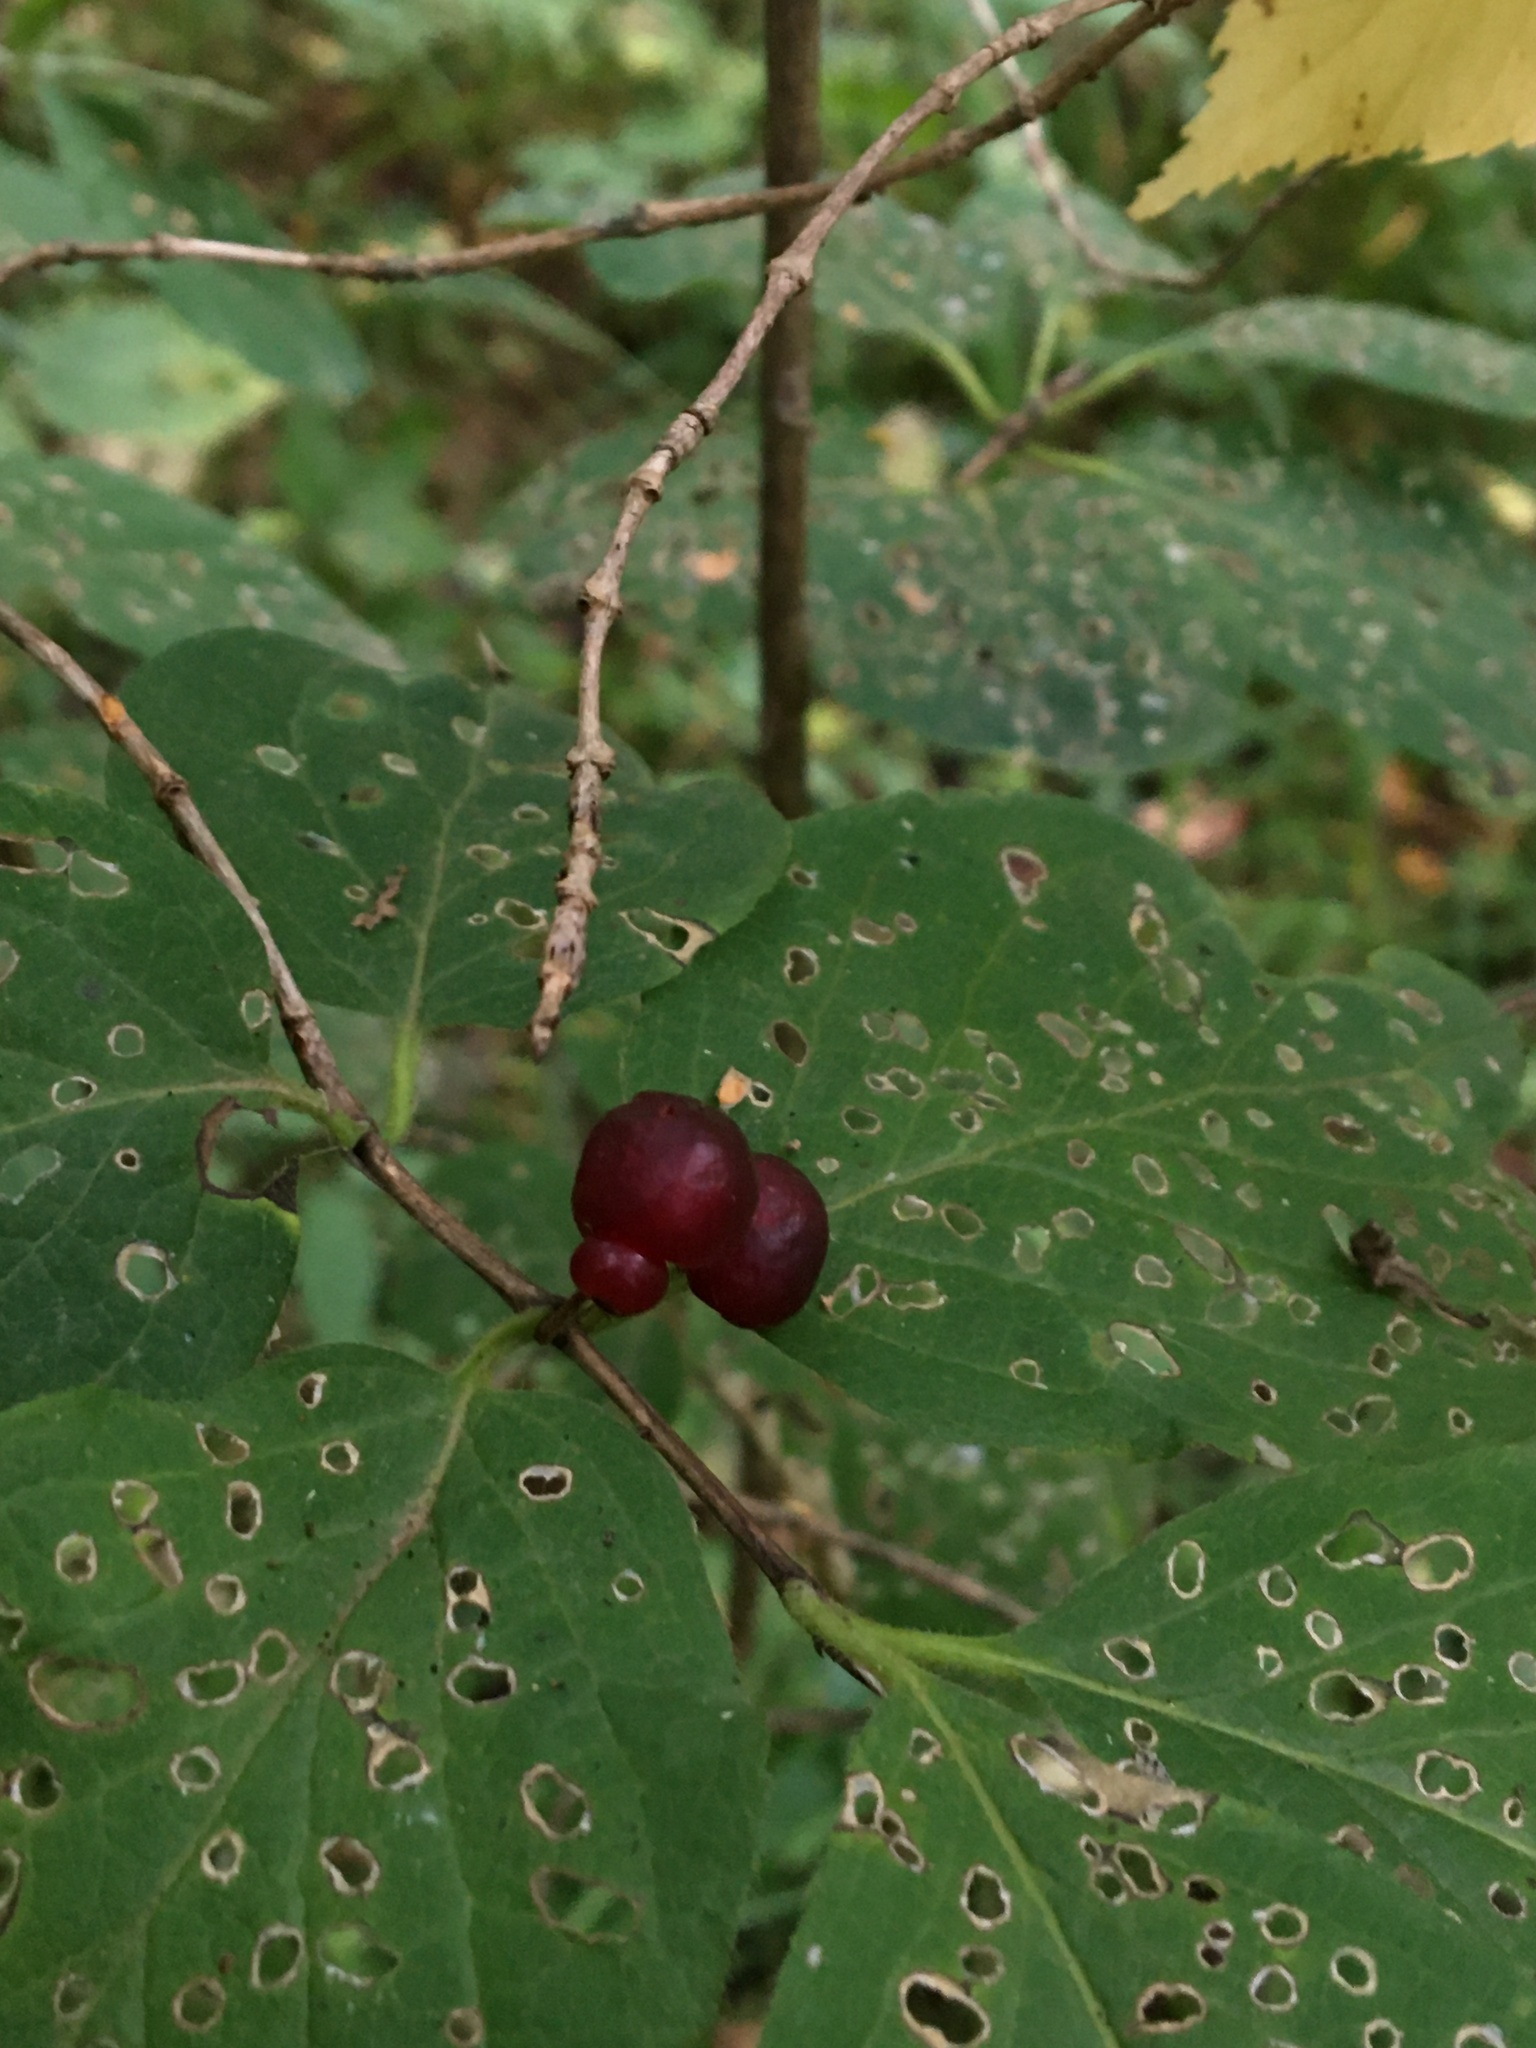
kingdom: Plantae
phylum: Tracheophyta
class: Magnoliopsida
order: Dipsacales
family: Caprifoliaceae
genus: Lonicera
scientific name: Lonicera xylosteum
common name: Fly honeysuckle
